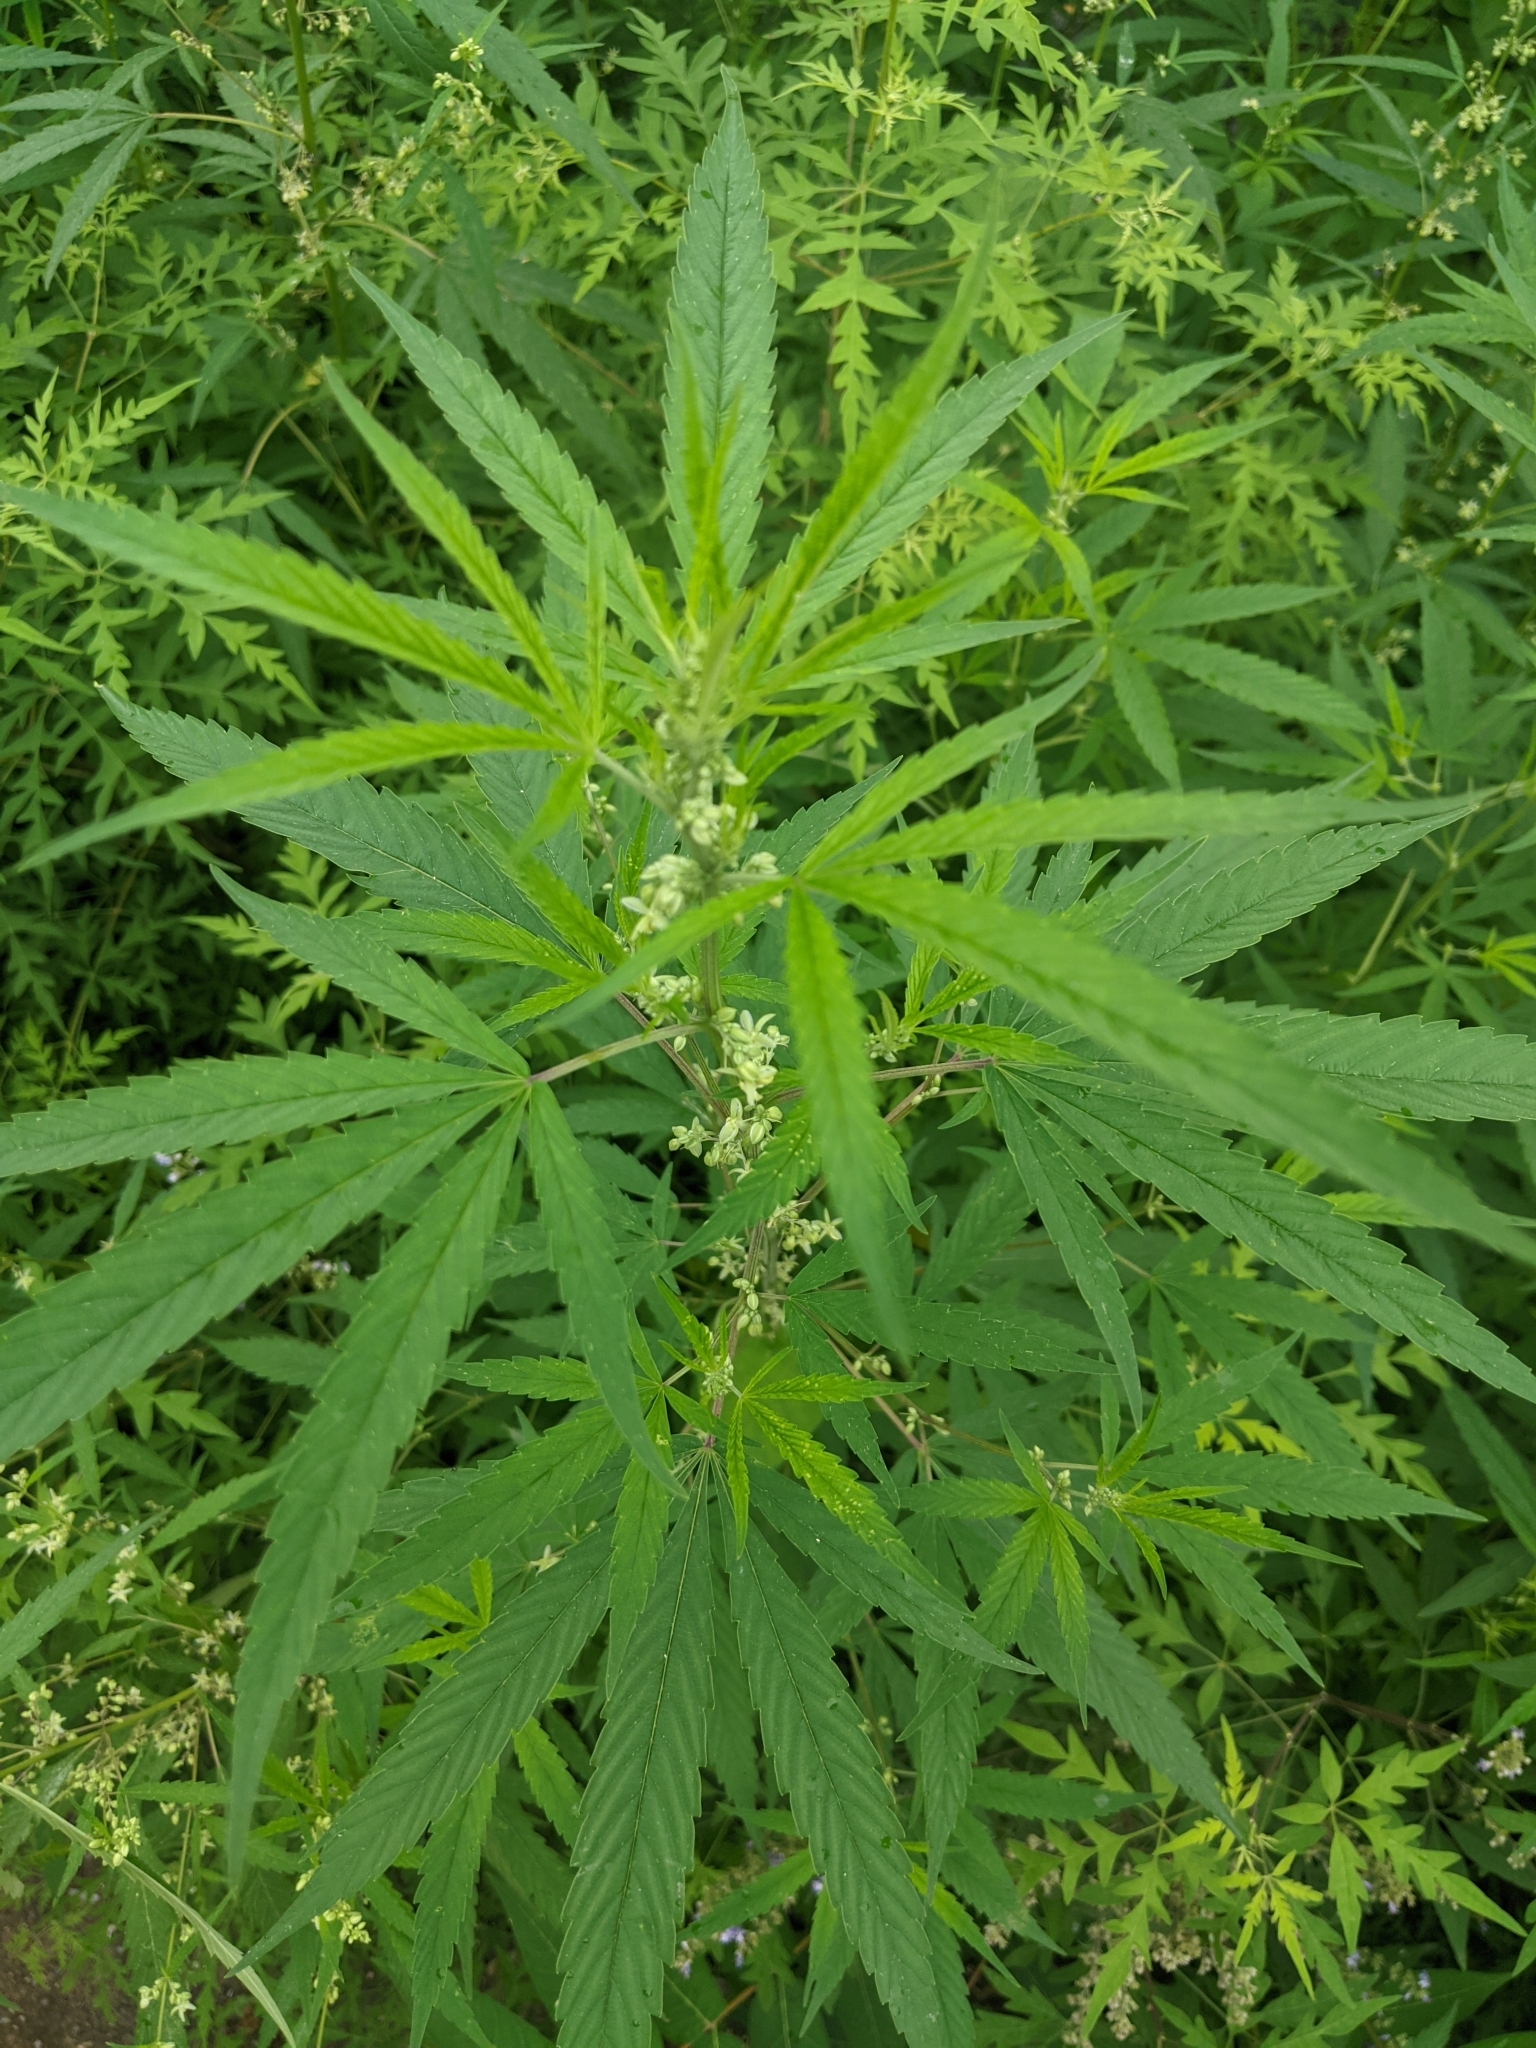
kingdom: Plantae
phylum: Tracheophyta
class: Magnoliopsida
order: Rosales
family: Cannabaceae
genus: Cannabis
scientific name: Cannabis sativa
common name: Hemp
